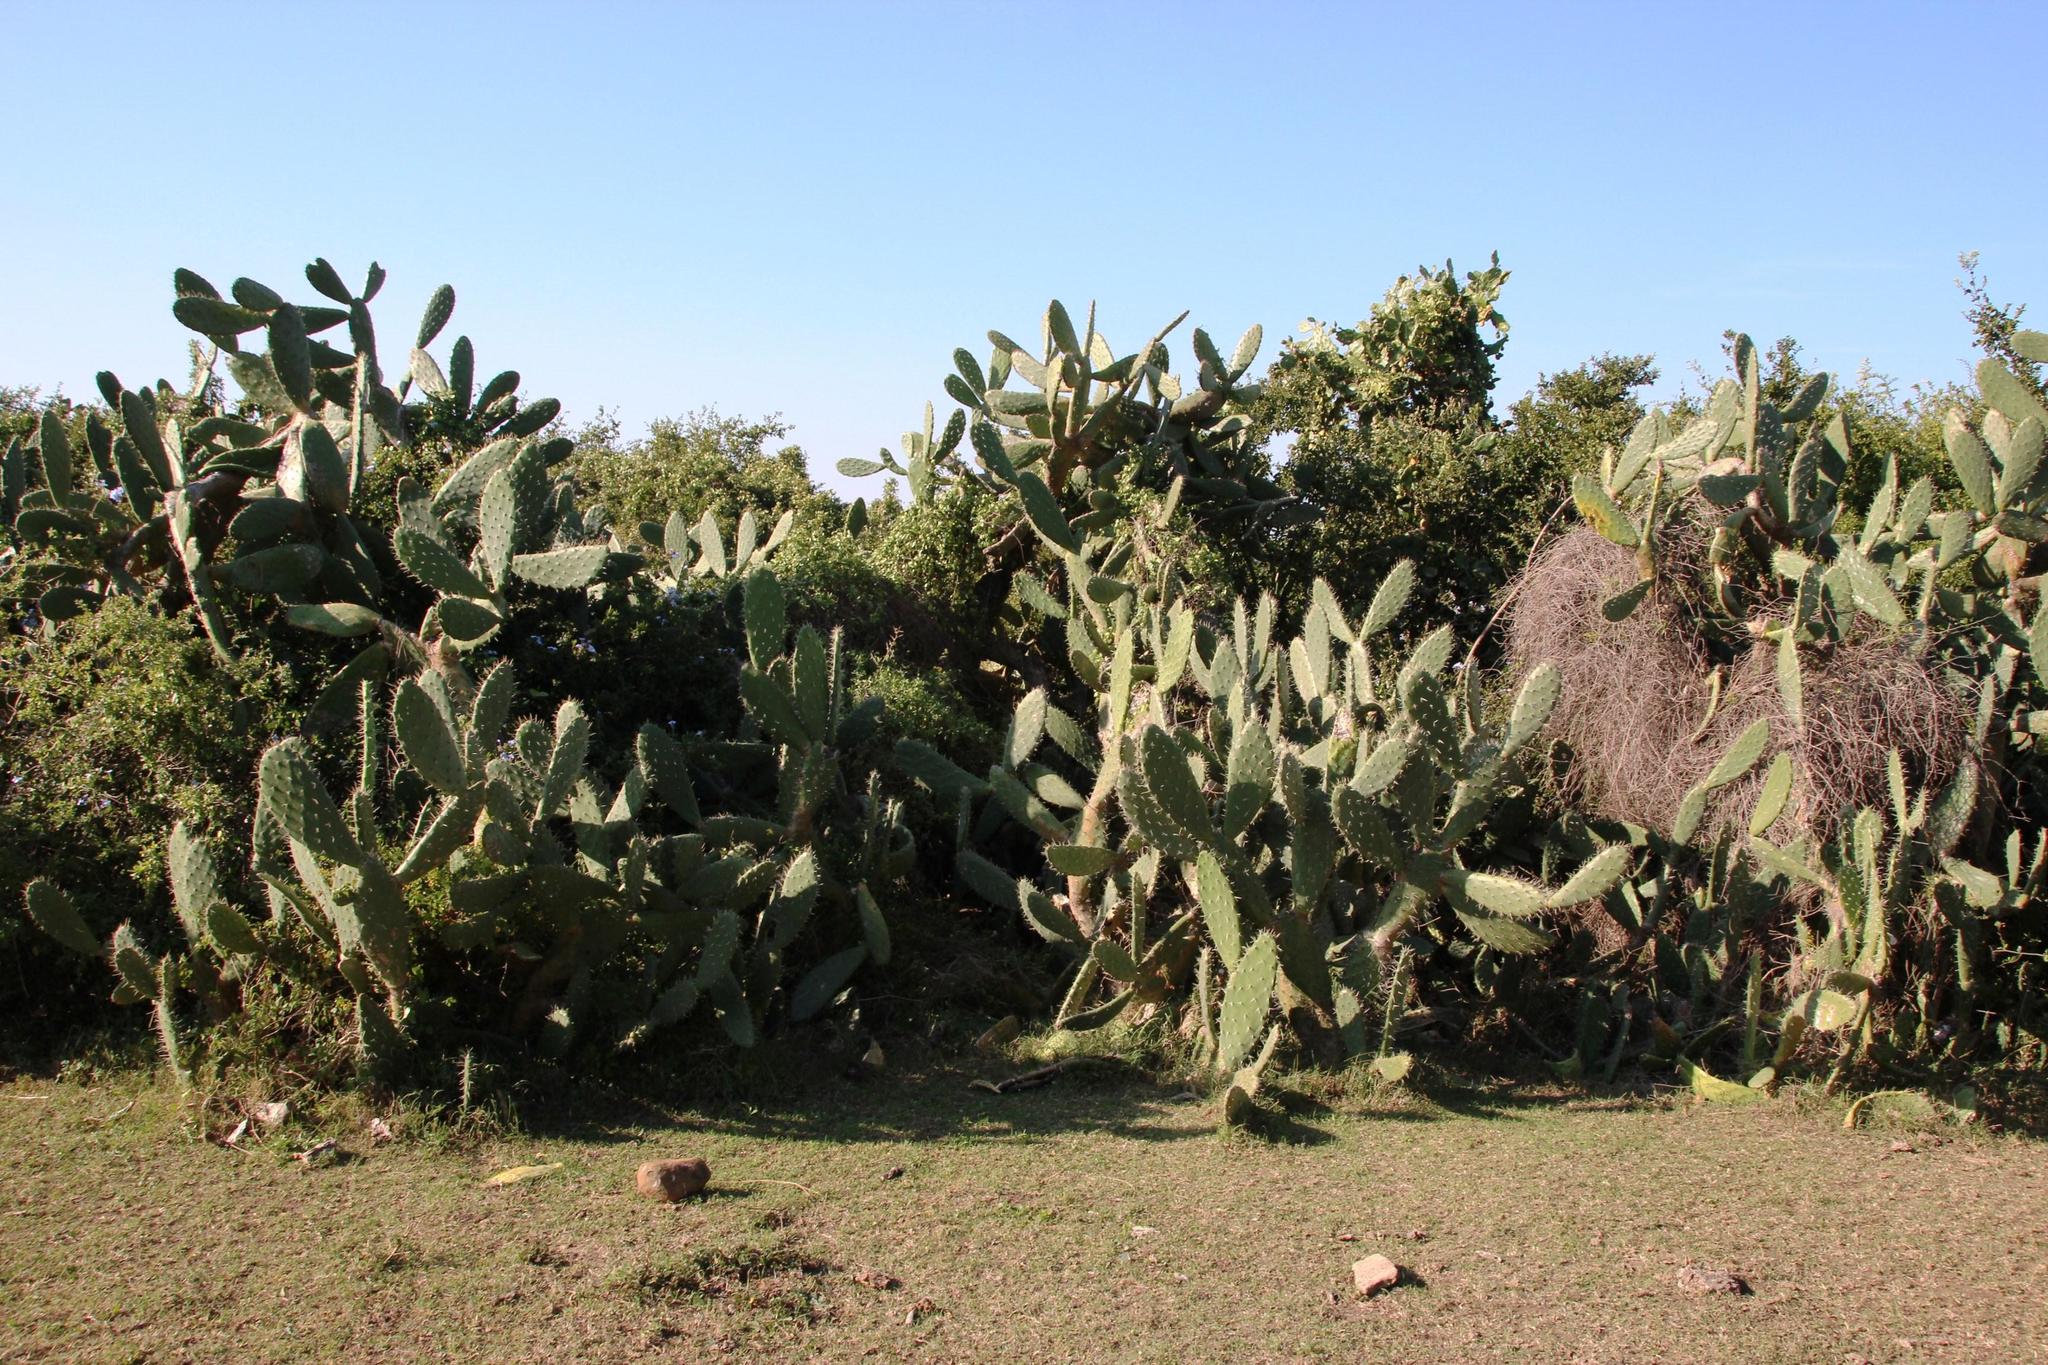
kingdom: Plantae
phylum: Tracheophyta
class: Magnoliopsida
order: Caryophyllales
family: Cactaceae
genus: Opuntia
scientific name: Opuntia ficus-indica
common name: Barbary fig
